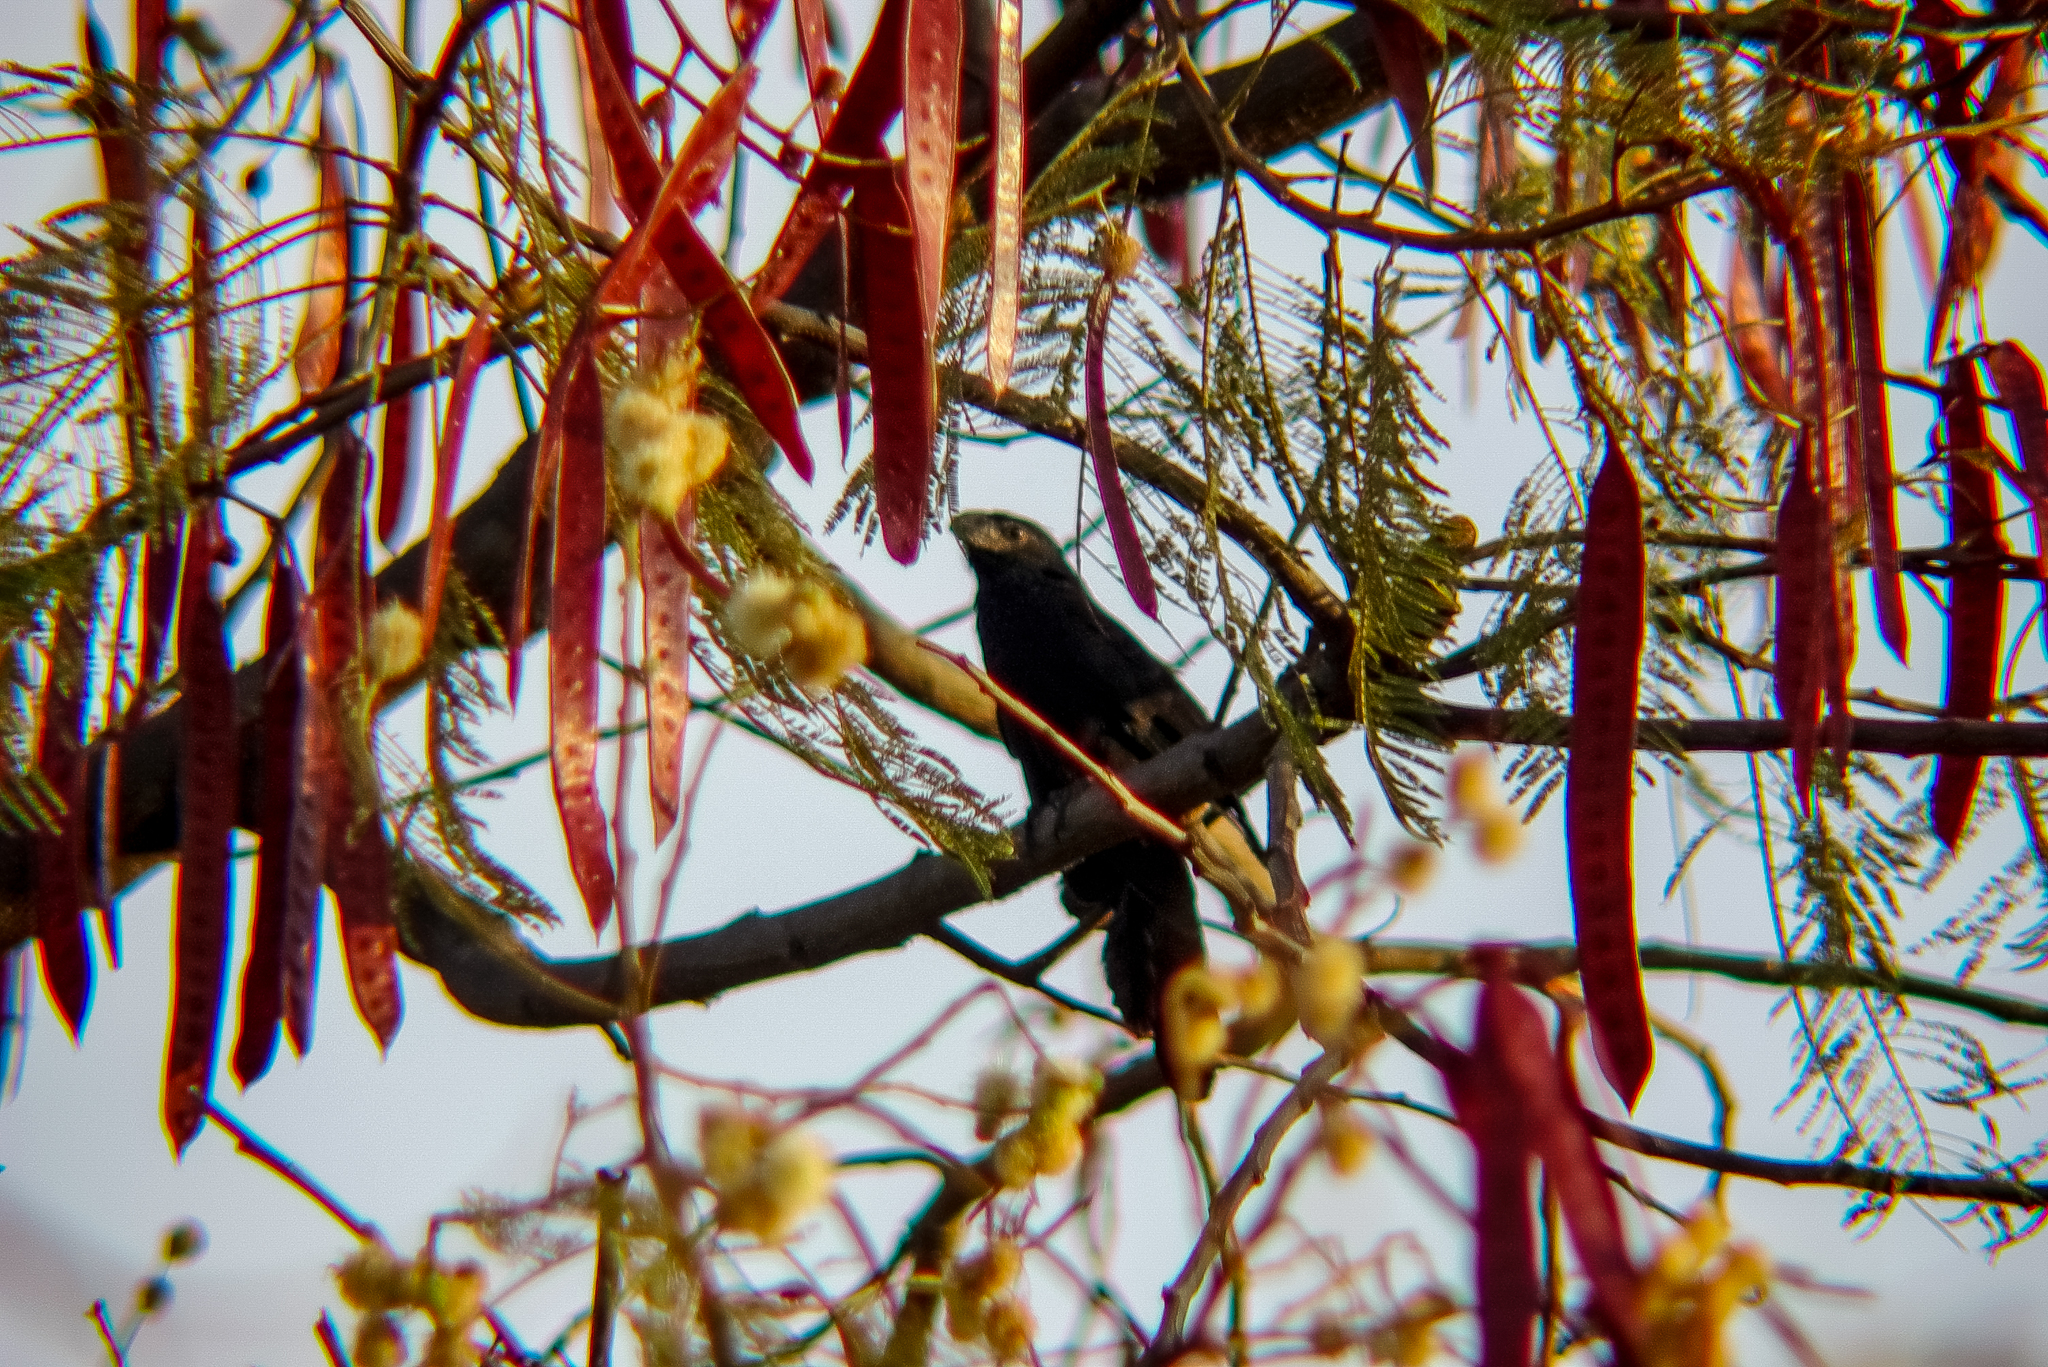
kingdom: Animalia
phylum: Chordata
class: Aves
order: Cuculiformes
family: Cuculidae
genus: Crotophaga
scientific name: Crotophaga sulcirostris
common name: Groove-billed ani
